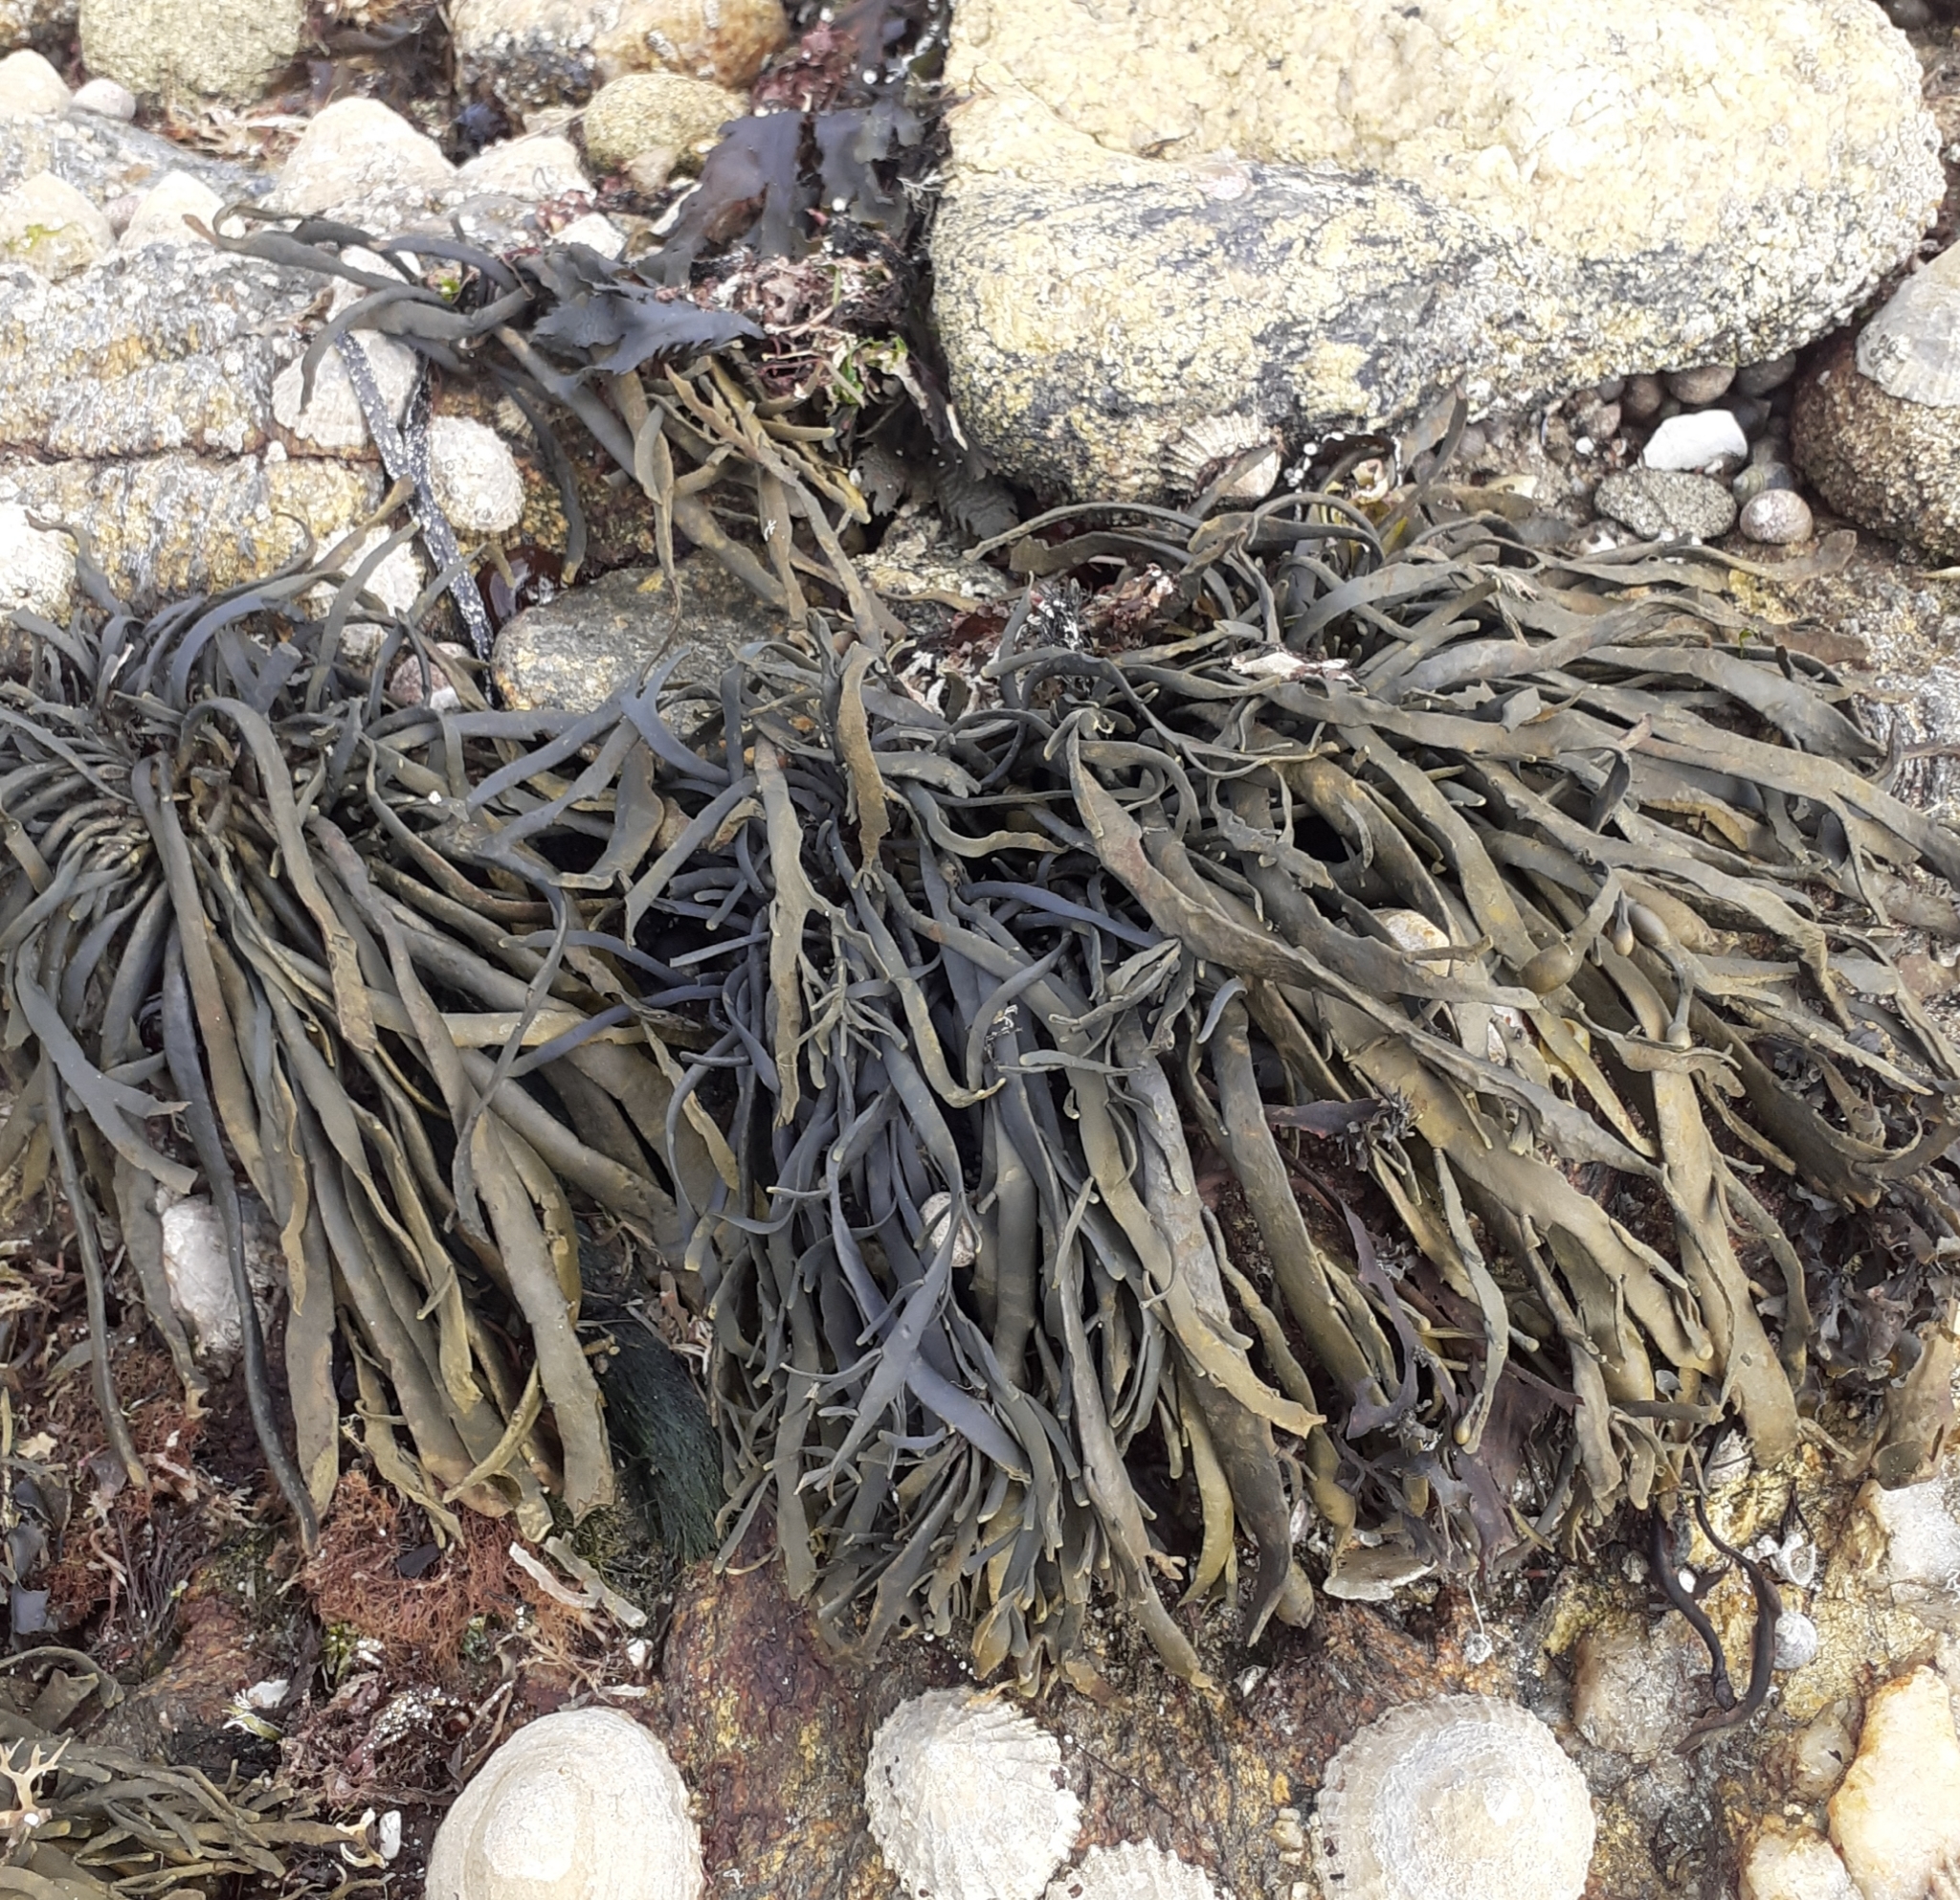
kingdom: Chromista
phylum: Ochrophyta
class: Phaeophyceae
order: Fucales
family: Fucaceae
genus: Ascophyllum
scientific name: Ascophyllum nodosum
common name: Knotted wrack
